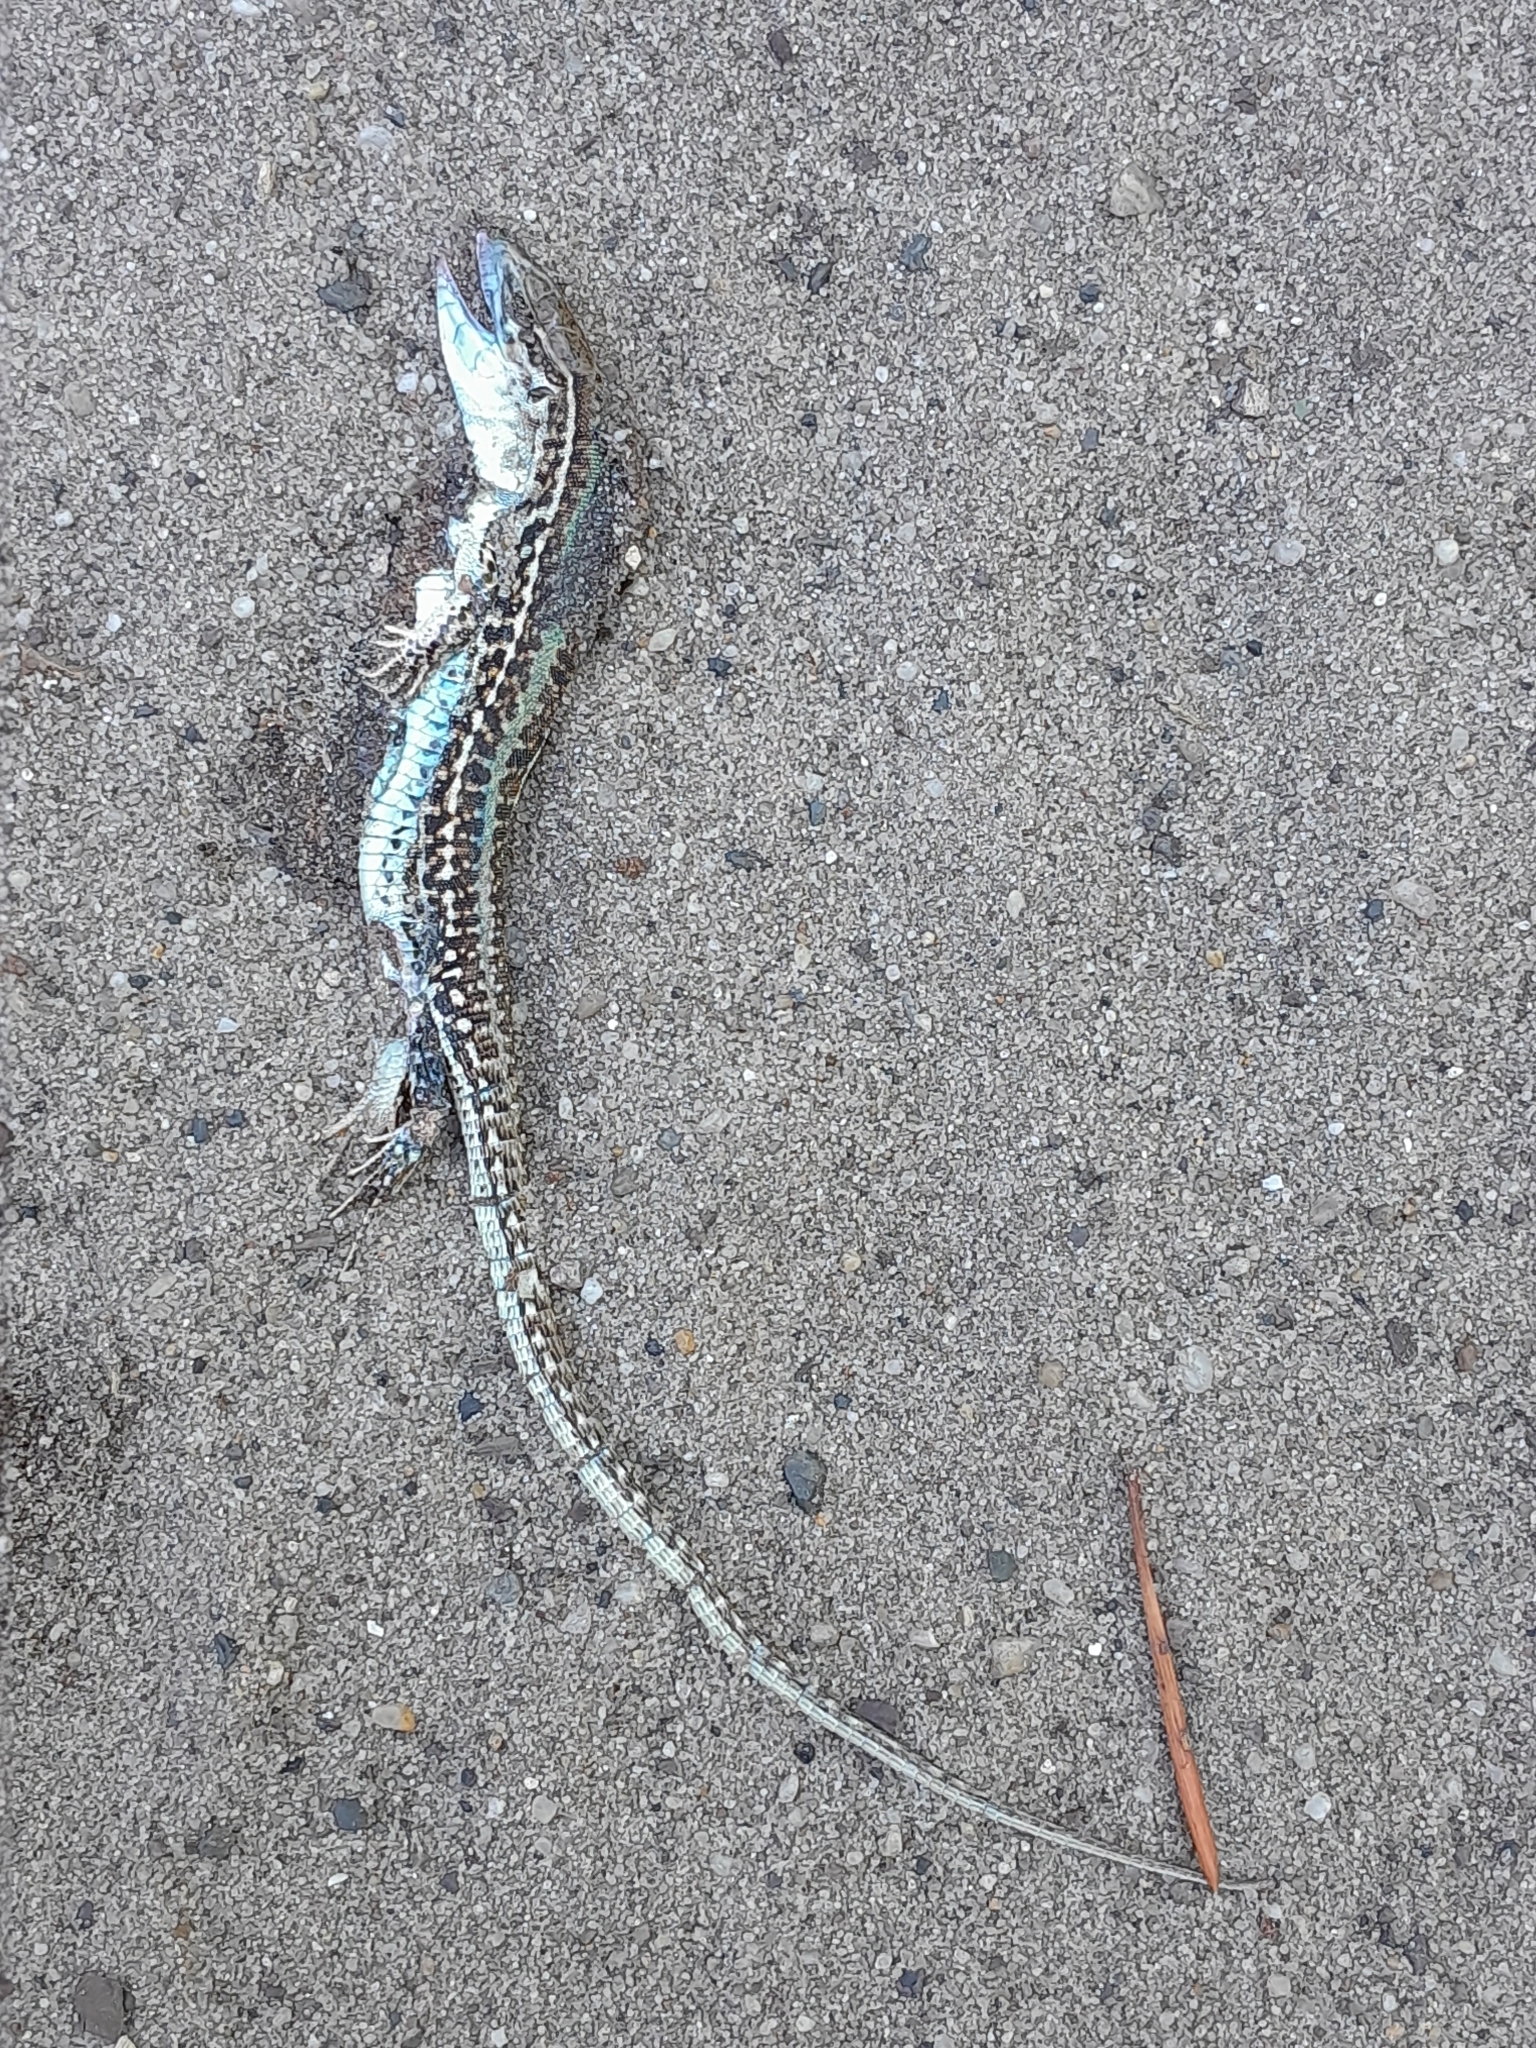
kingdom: Animalia
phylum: Chordata
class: Squamata
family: Lacertidae
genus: Podarcis
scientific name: Podarcis tauricus
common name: Balkan wall lizard
